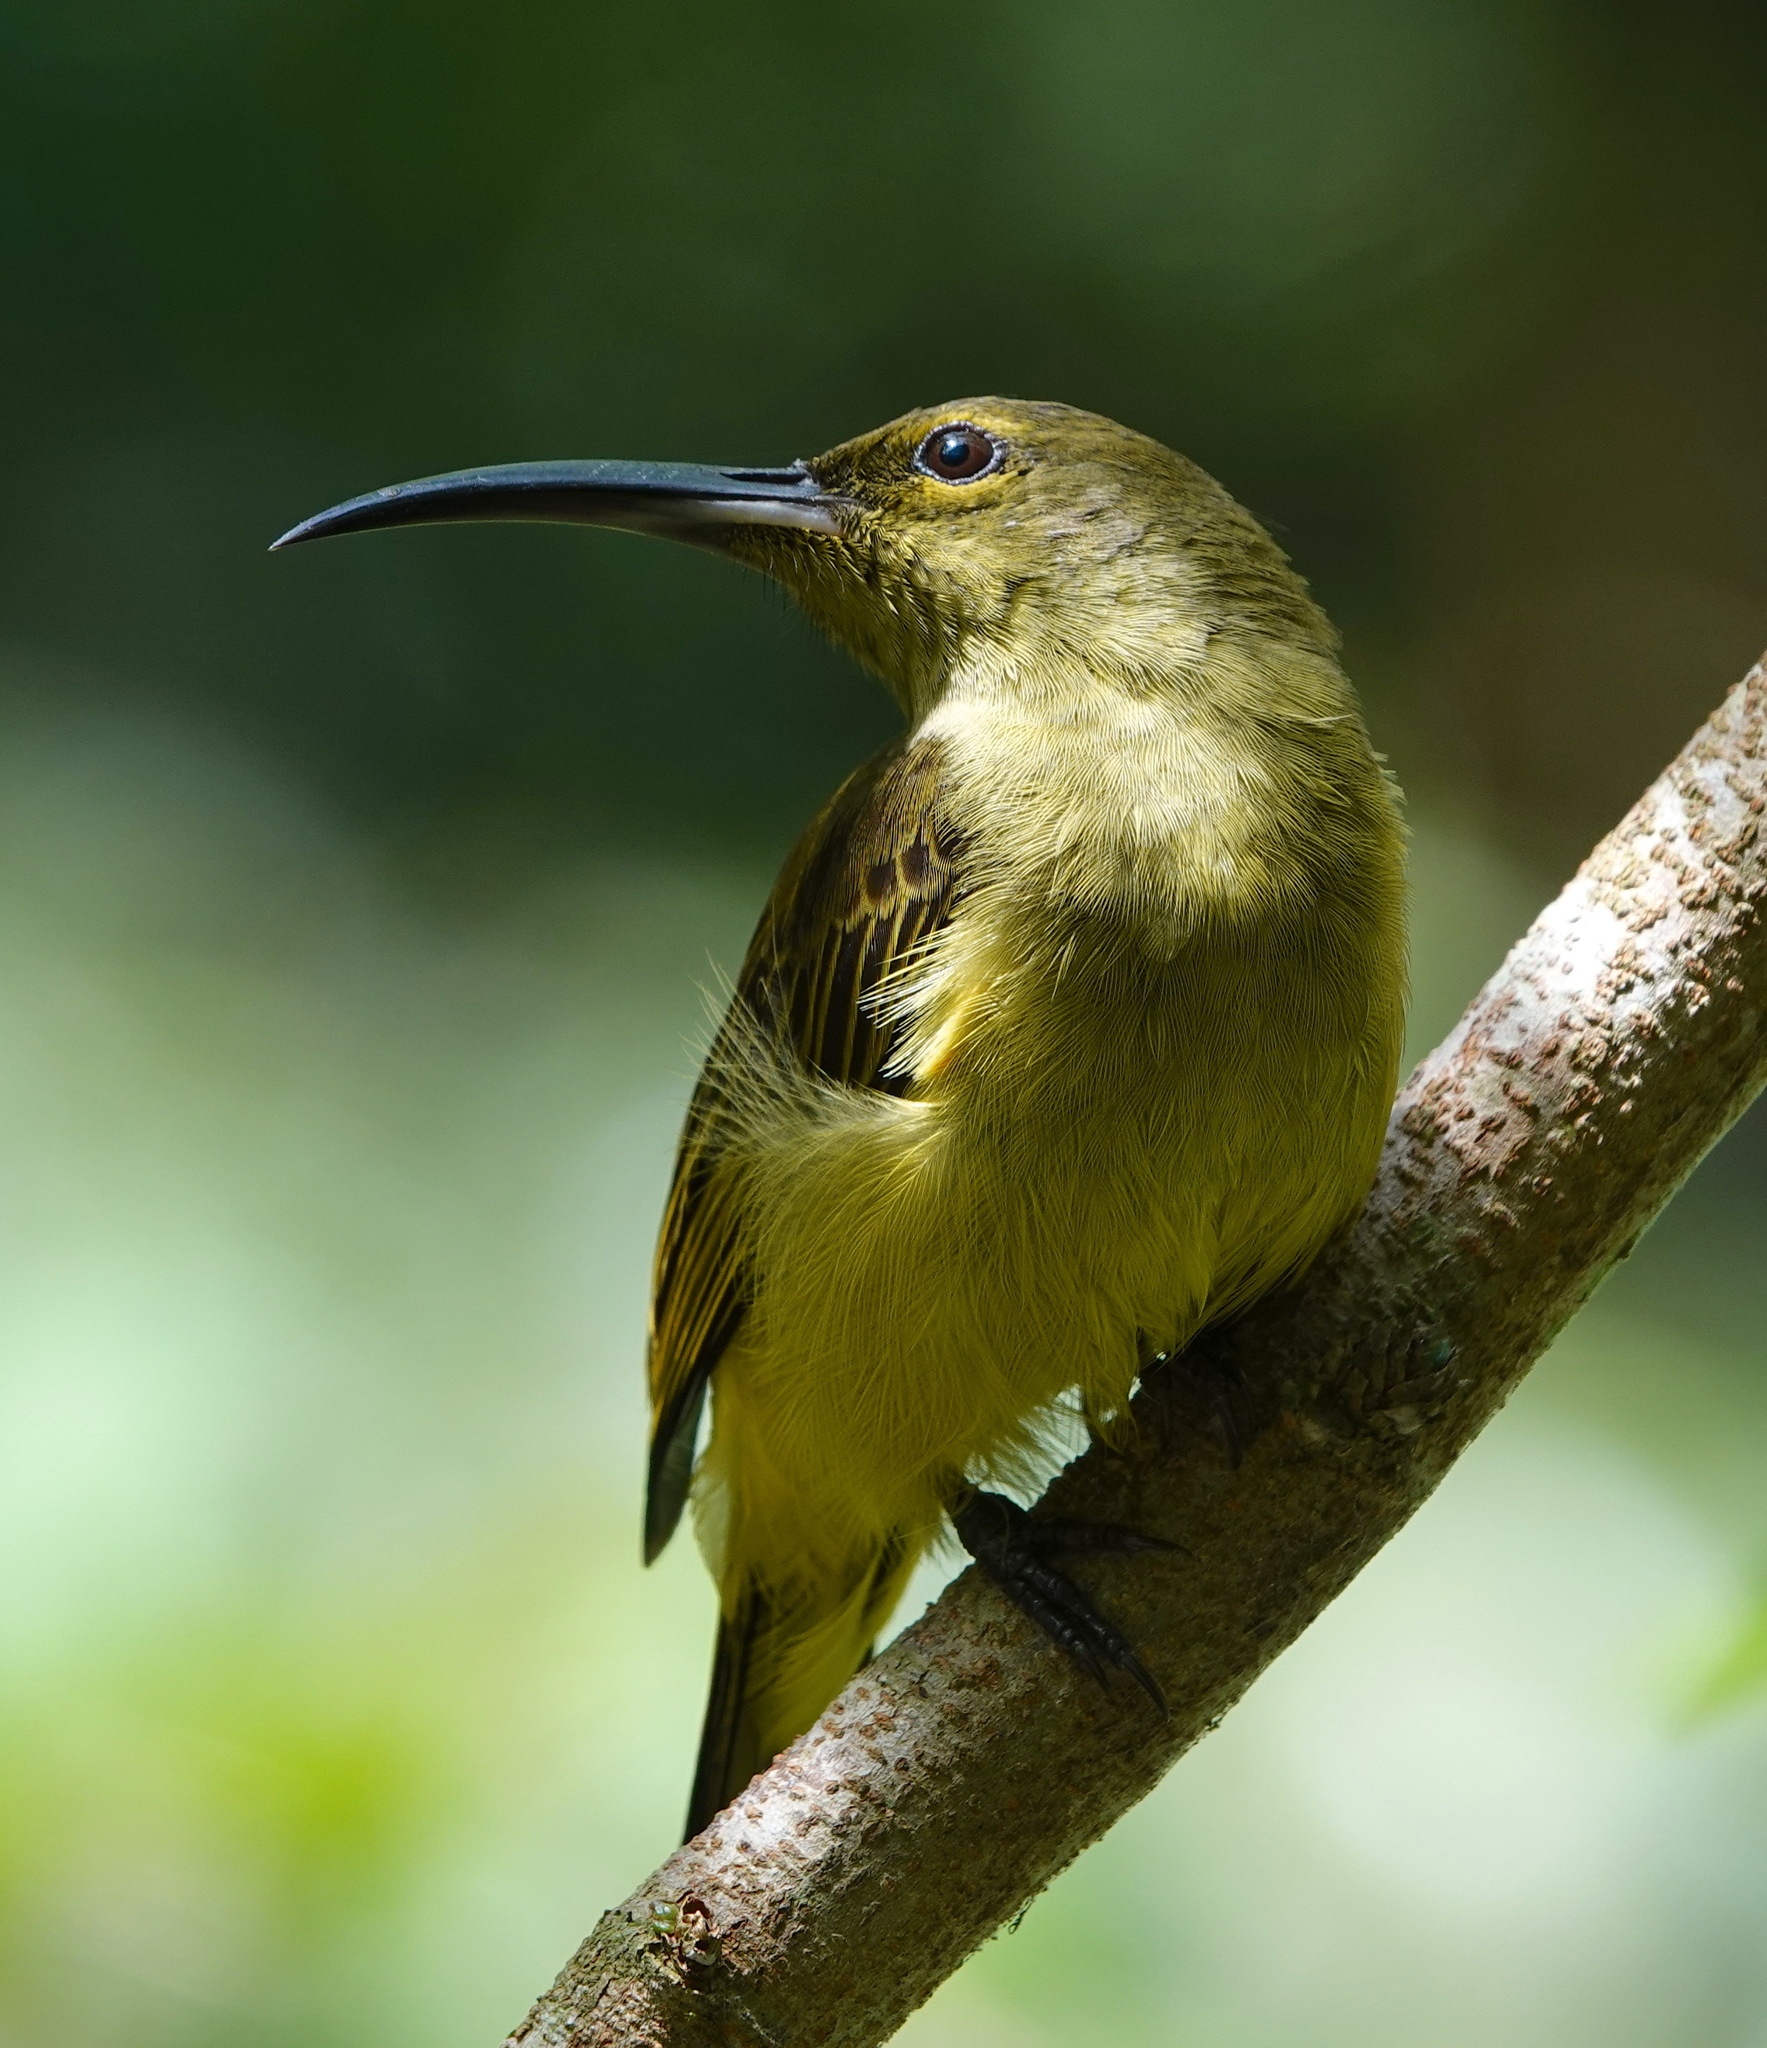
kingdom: Animalia
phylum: Chordata
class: Aves
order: Passeriformes
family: Nectariniidae
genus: Arachnothera
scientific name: Arachnothera crassirostris
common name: Thick-billed spiderhunter
